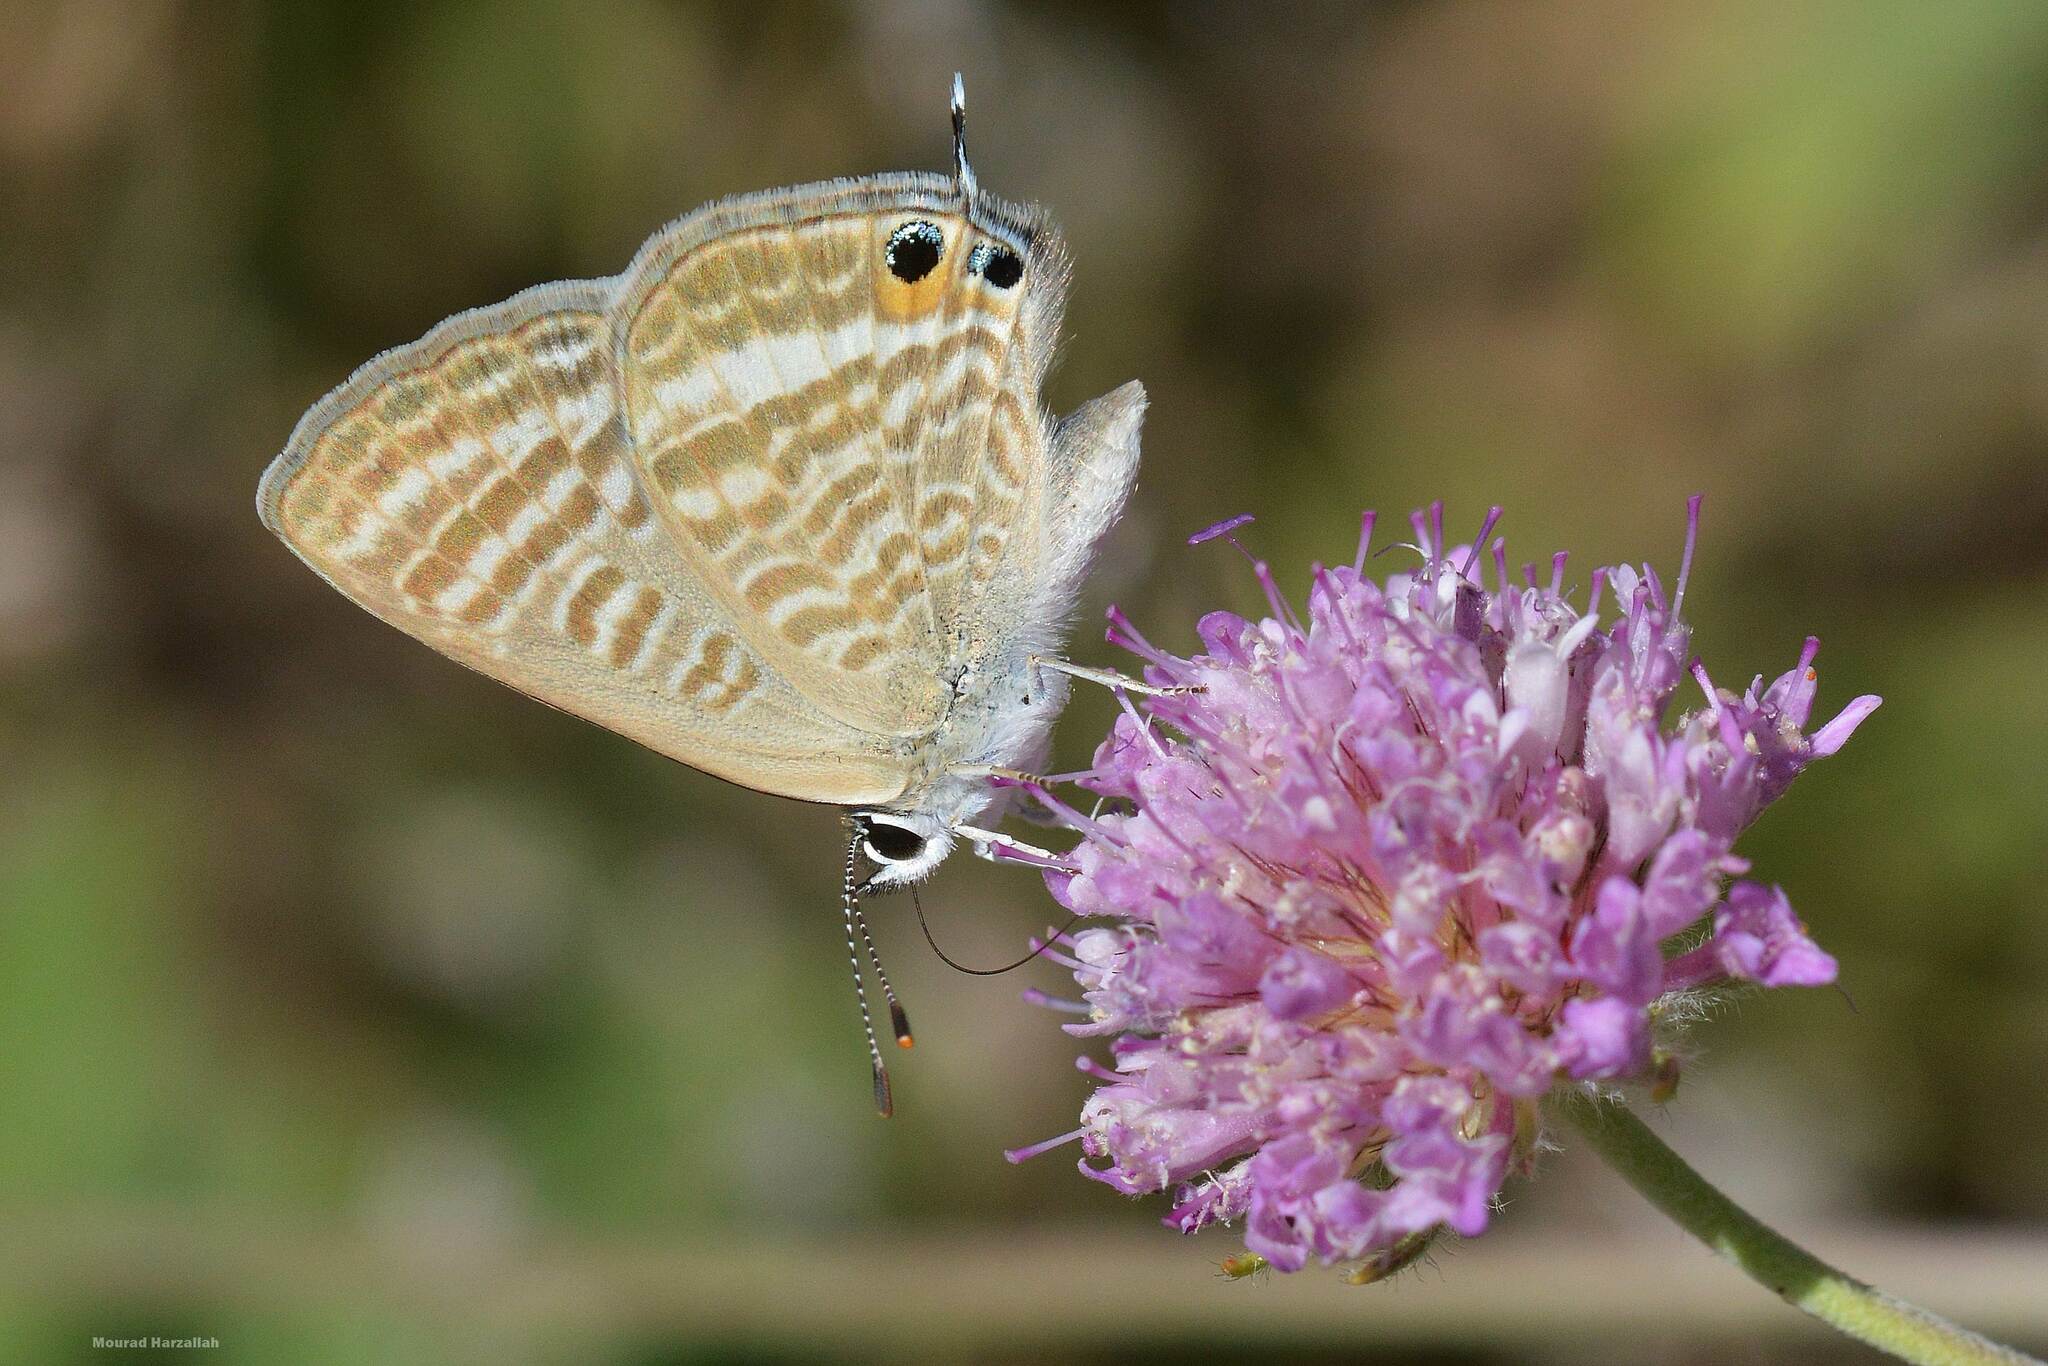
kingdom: Animalia
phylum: Arthropoda
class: Insecta
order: Lepidoptera
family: Lycaenidae
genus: Lampides
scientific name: Lampides boeticus
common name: Long-tailed blue
